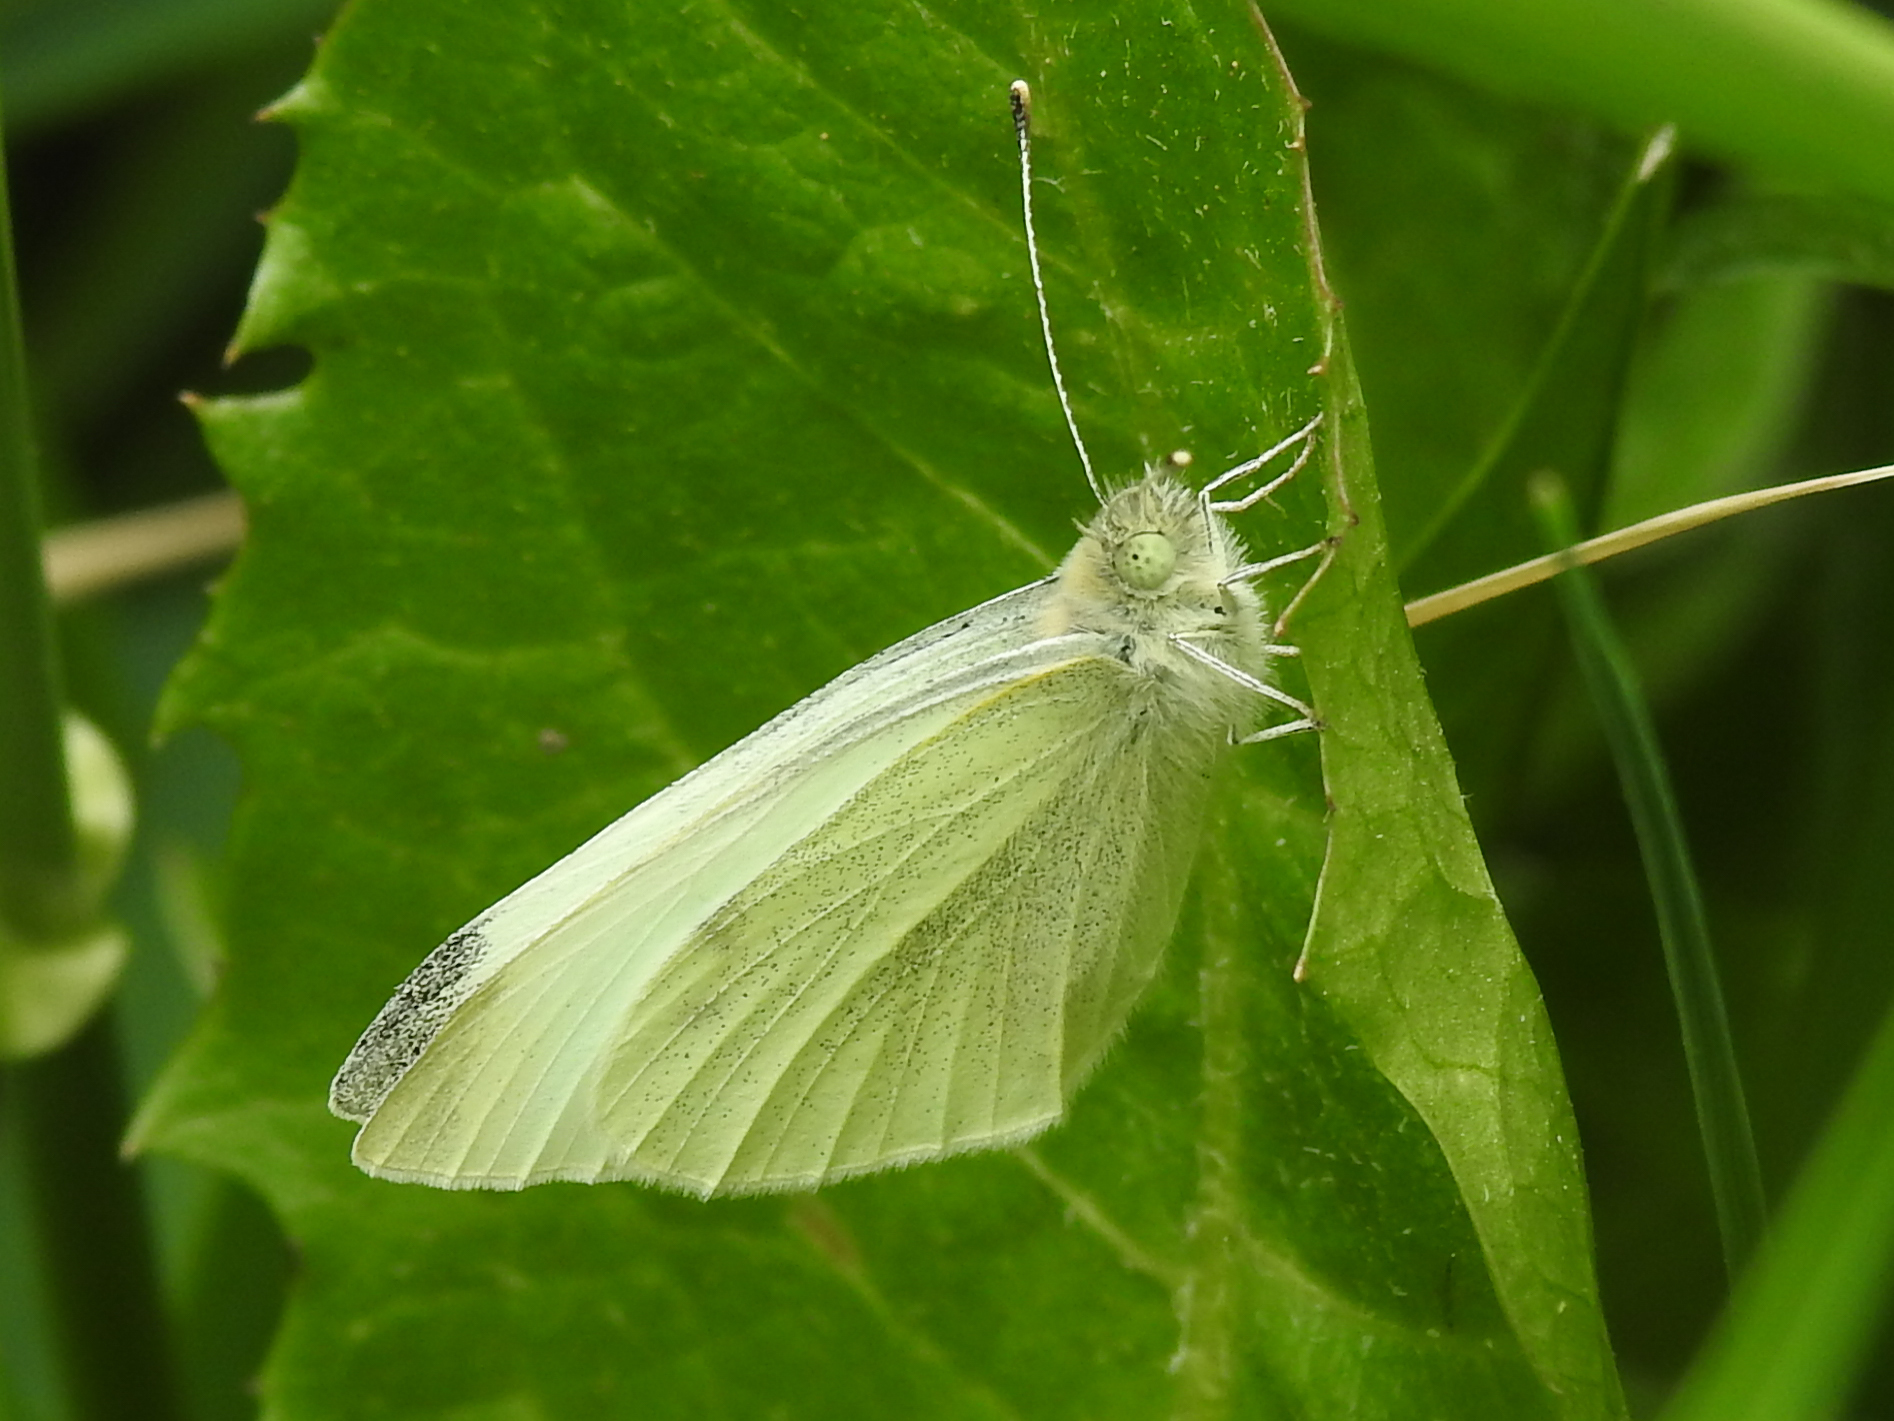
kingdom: Animalia
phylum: Arthropoda
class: Insecta
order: Lepidoptera
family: Pieridae
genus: Pieris
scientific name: Pieris rapae
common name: Small white
